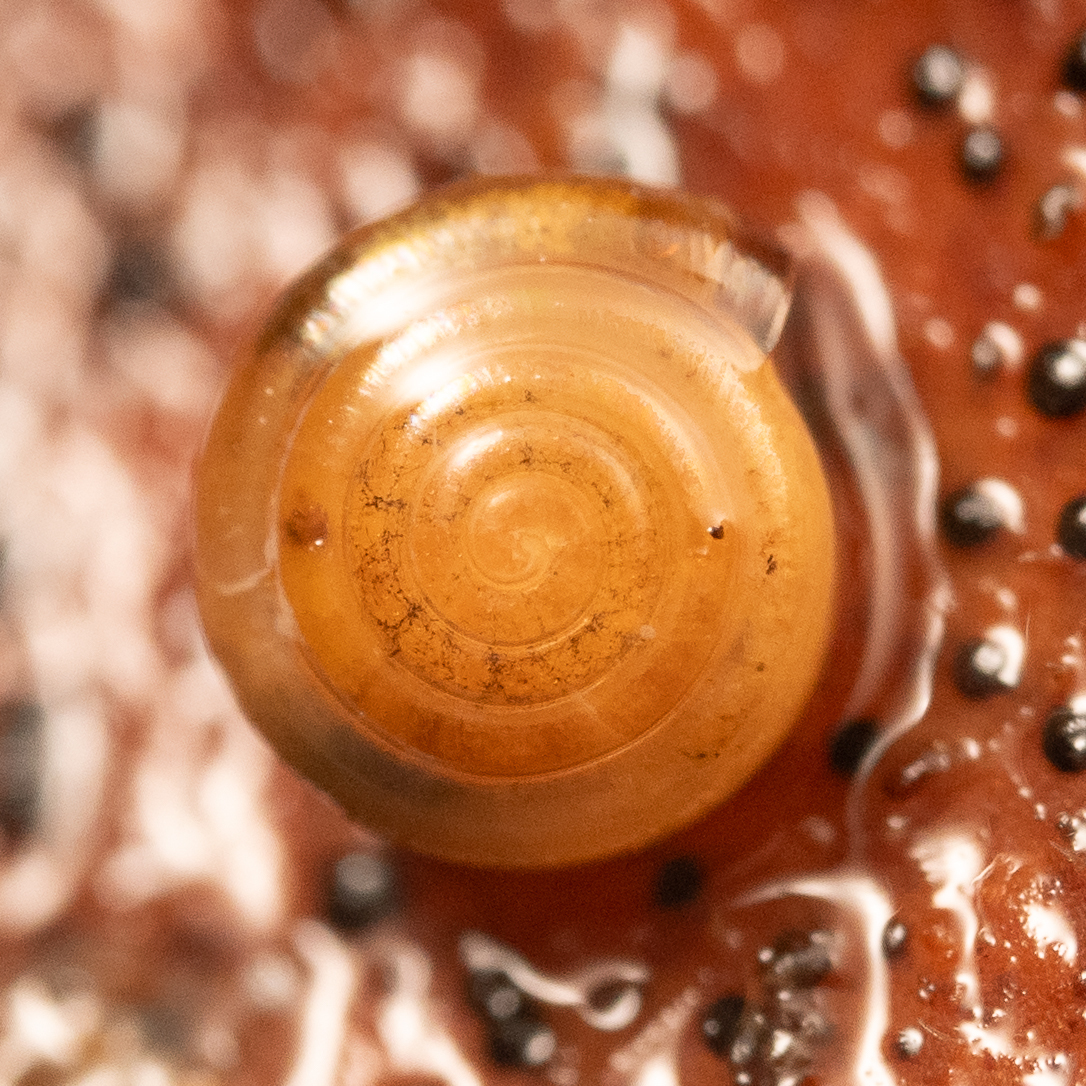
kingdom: Animalia
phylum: Mollusca
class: Gastropoda
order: Stylommatophora
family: Pristilomatidae
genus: Pristiloma
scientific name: Pristiloma lansingi
